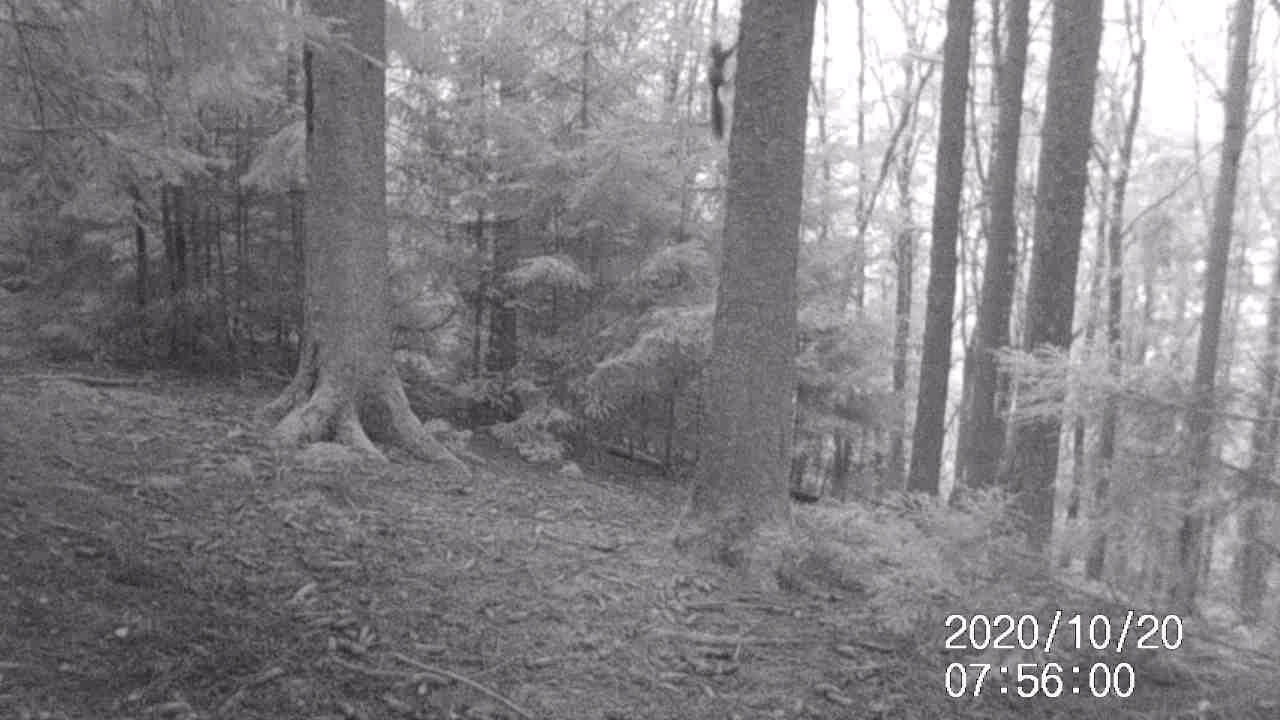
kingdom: Animalia
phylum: Chordata
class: Mammalia
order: Rodentia
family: Sciuridae
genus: Sciurus
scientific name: Sciurus vulgaris
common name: Eurasian red squirrel
